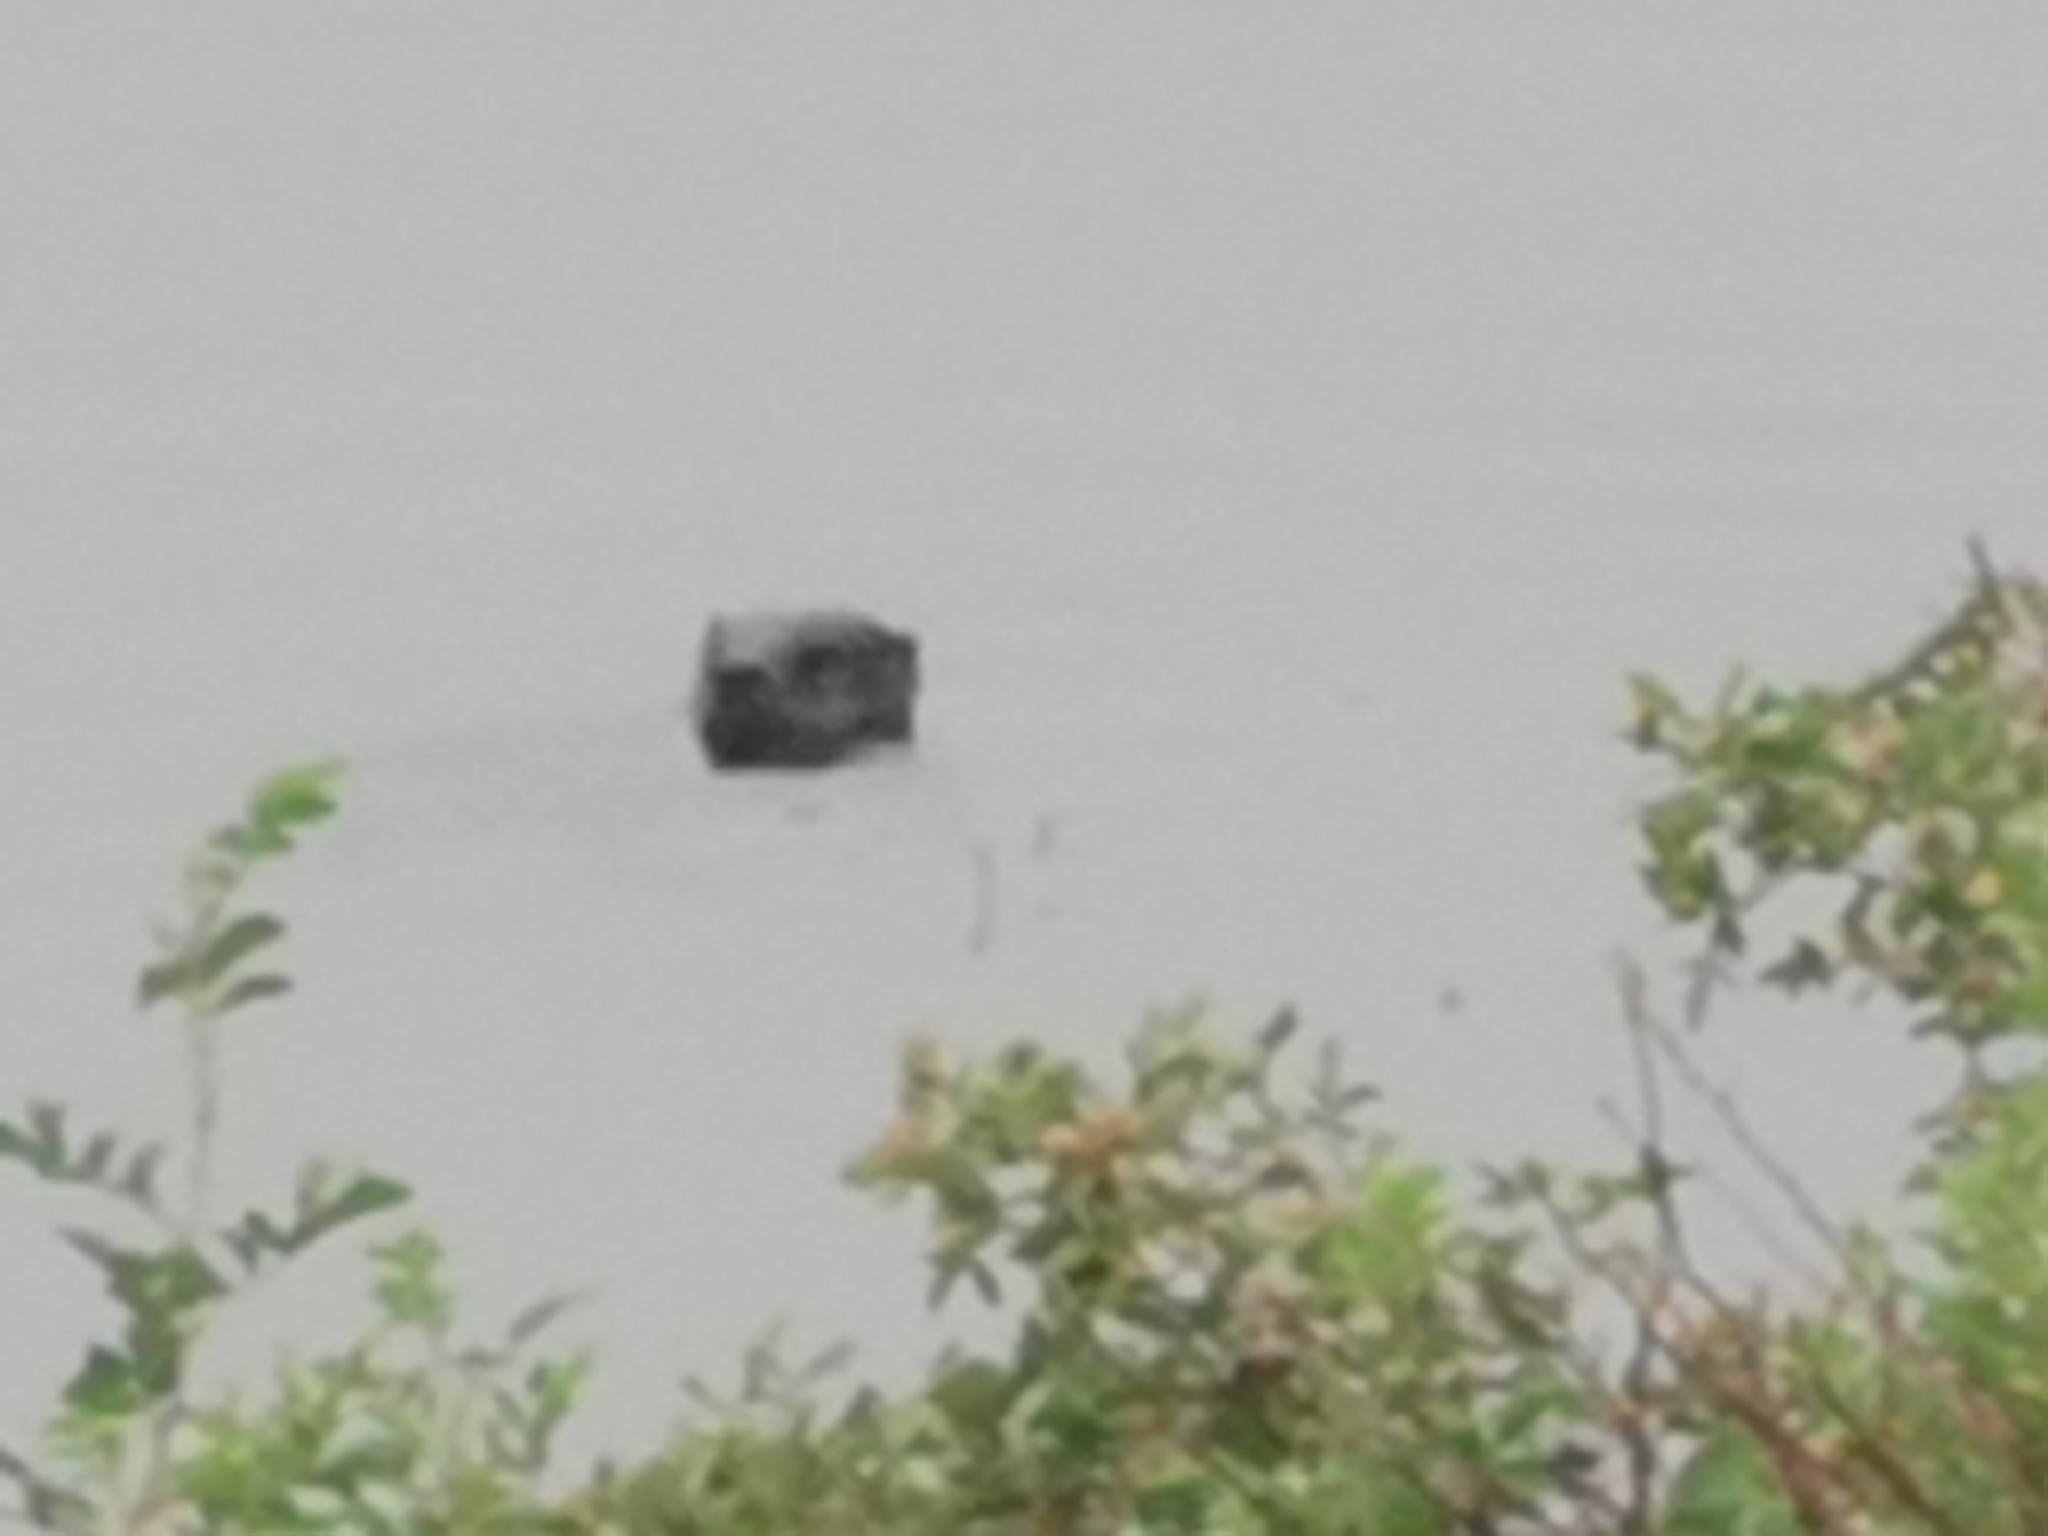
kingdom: Animalia
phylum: Chordata
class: Mammalia
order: Carnivora
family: Mustelidae
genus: Lontra
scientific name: Lontra canadensis
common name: North american river otter
